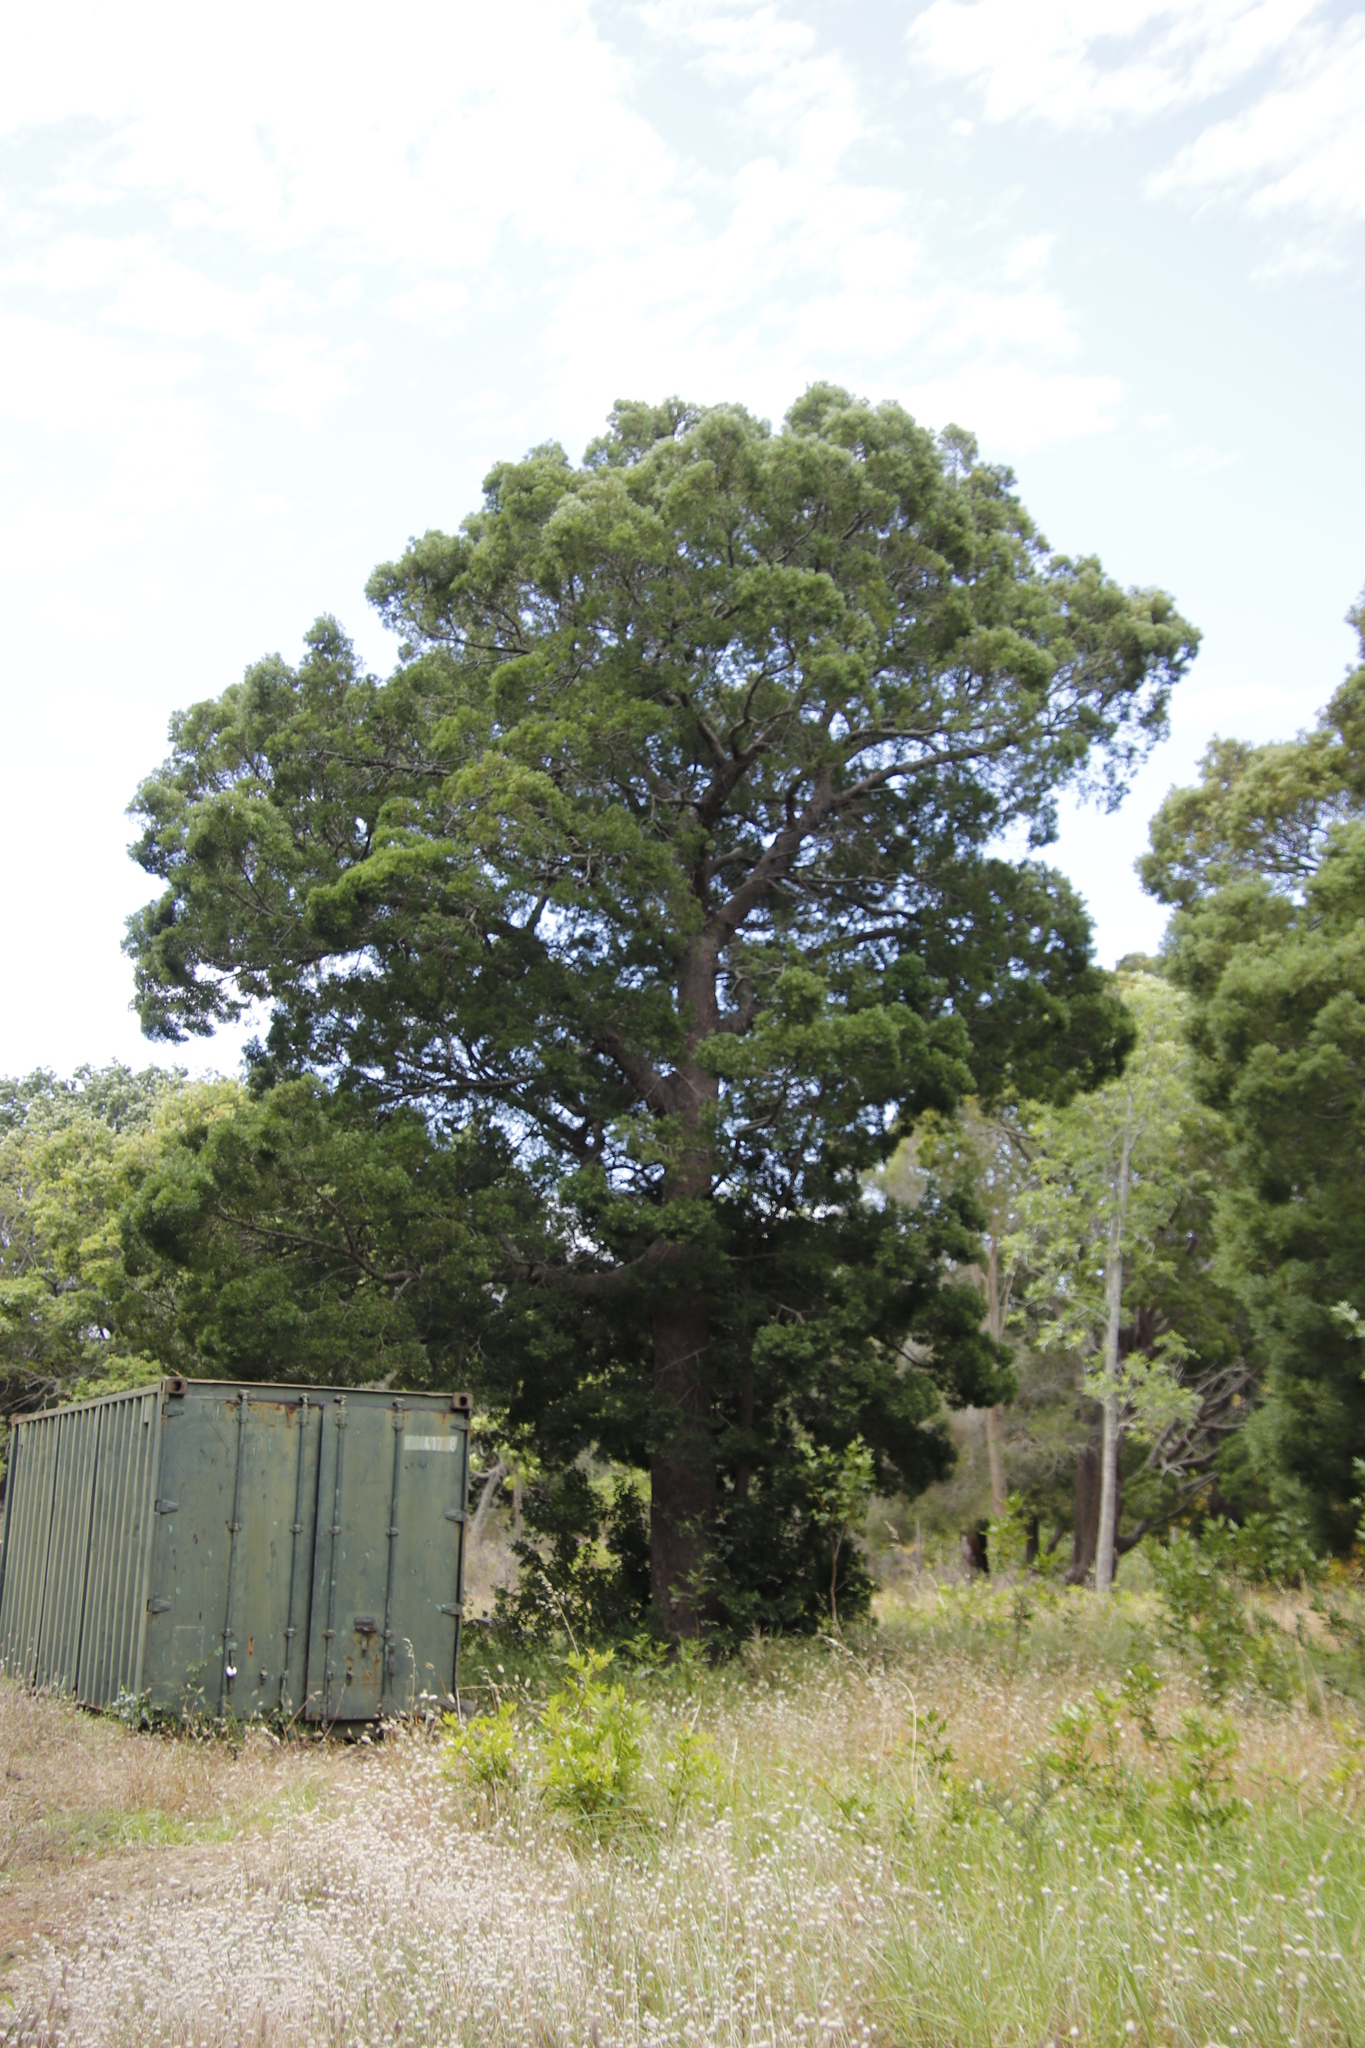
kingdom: Plantae
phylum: Tracheophyta
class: Pinopsida
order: Pinales
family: Podocarpaceae
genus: Afrocarpus
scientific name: Afrocarpus falcatus
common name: Bastard yellowwood
